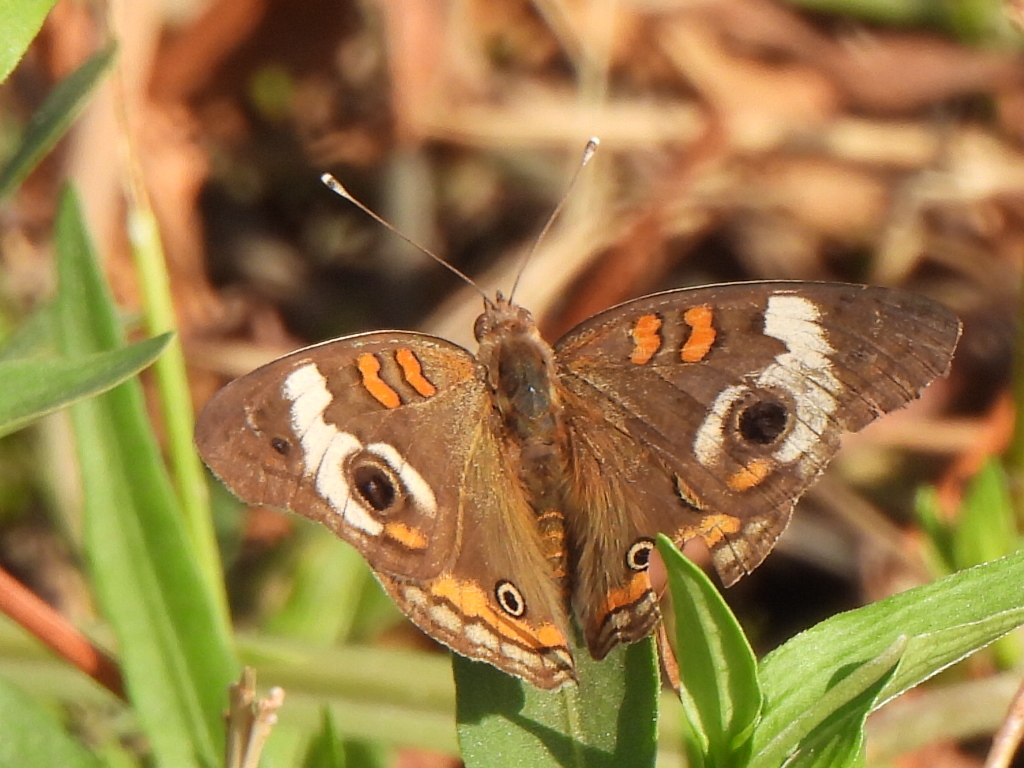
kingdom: Animalia
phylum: Arthropoda
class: Insecta
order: Lepidoptera
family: Nymphalidae
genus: Junonia
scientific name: Junonia coenia
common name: Common buckeye
